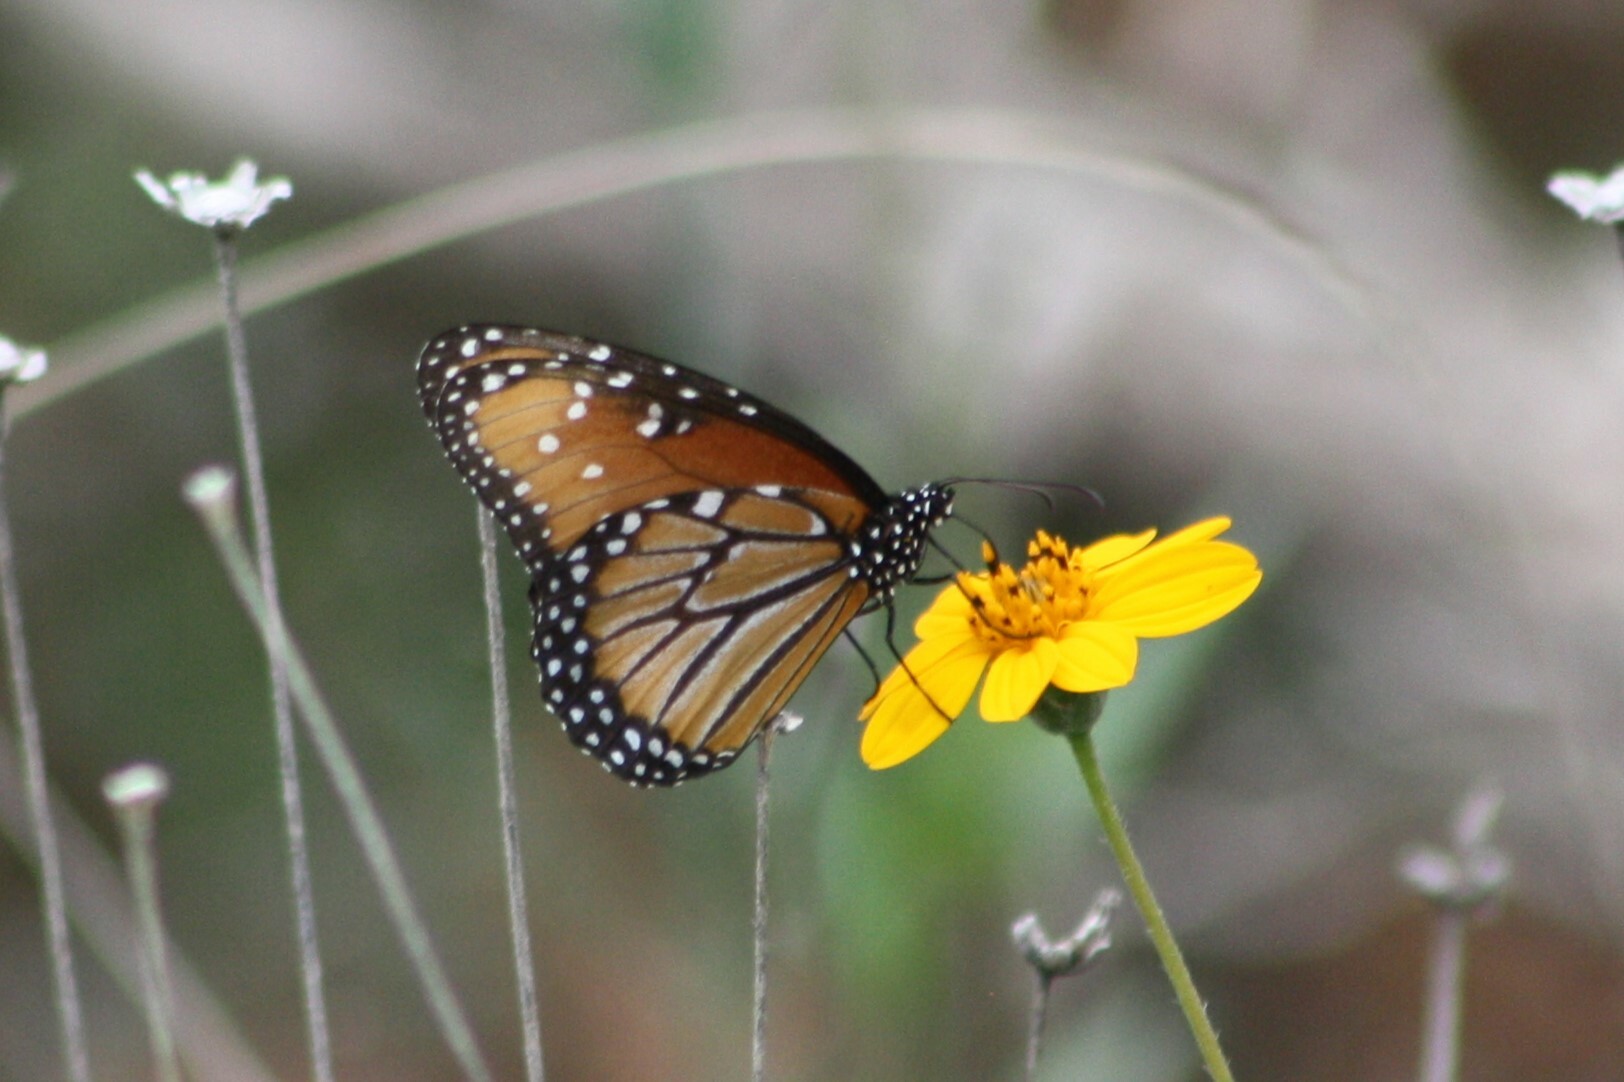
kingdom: Animalia
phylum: Arthropoda
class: Insecta
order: Lepidoptera
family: Nymphalidae
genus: Danaus
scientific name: Danaus gilippus
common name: Queen
